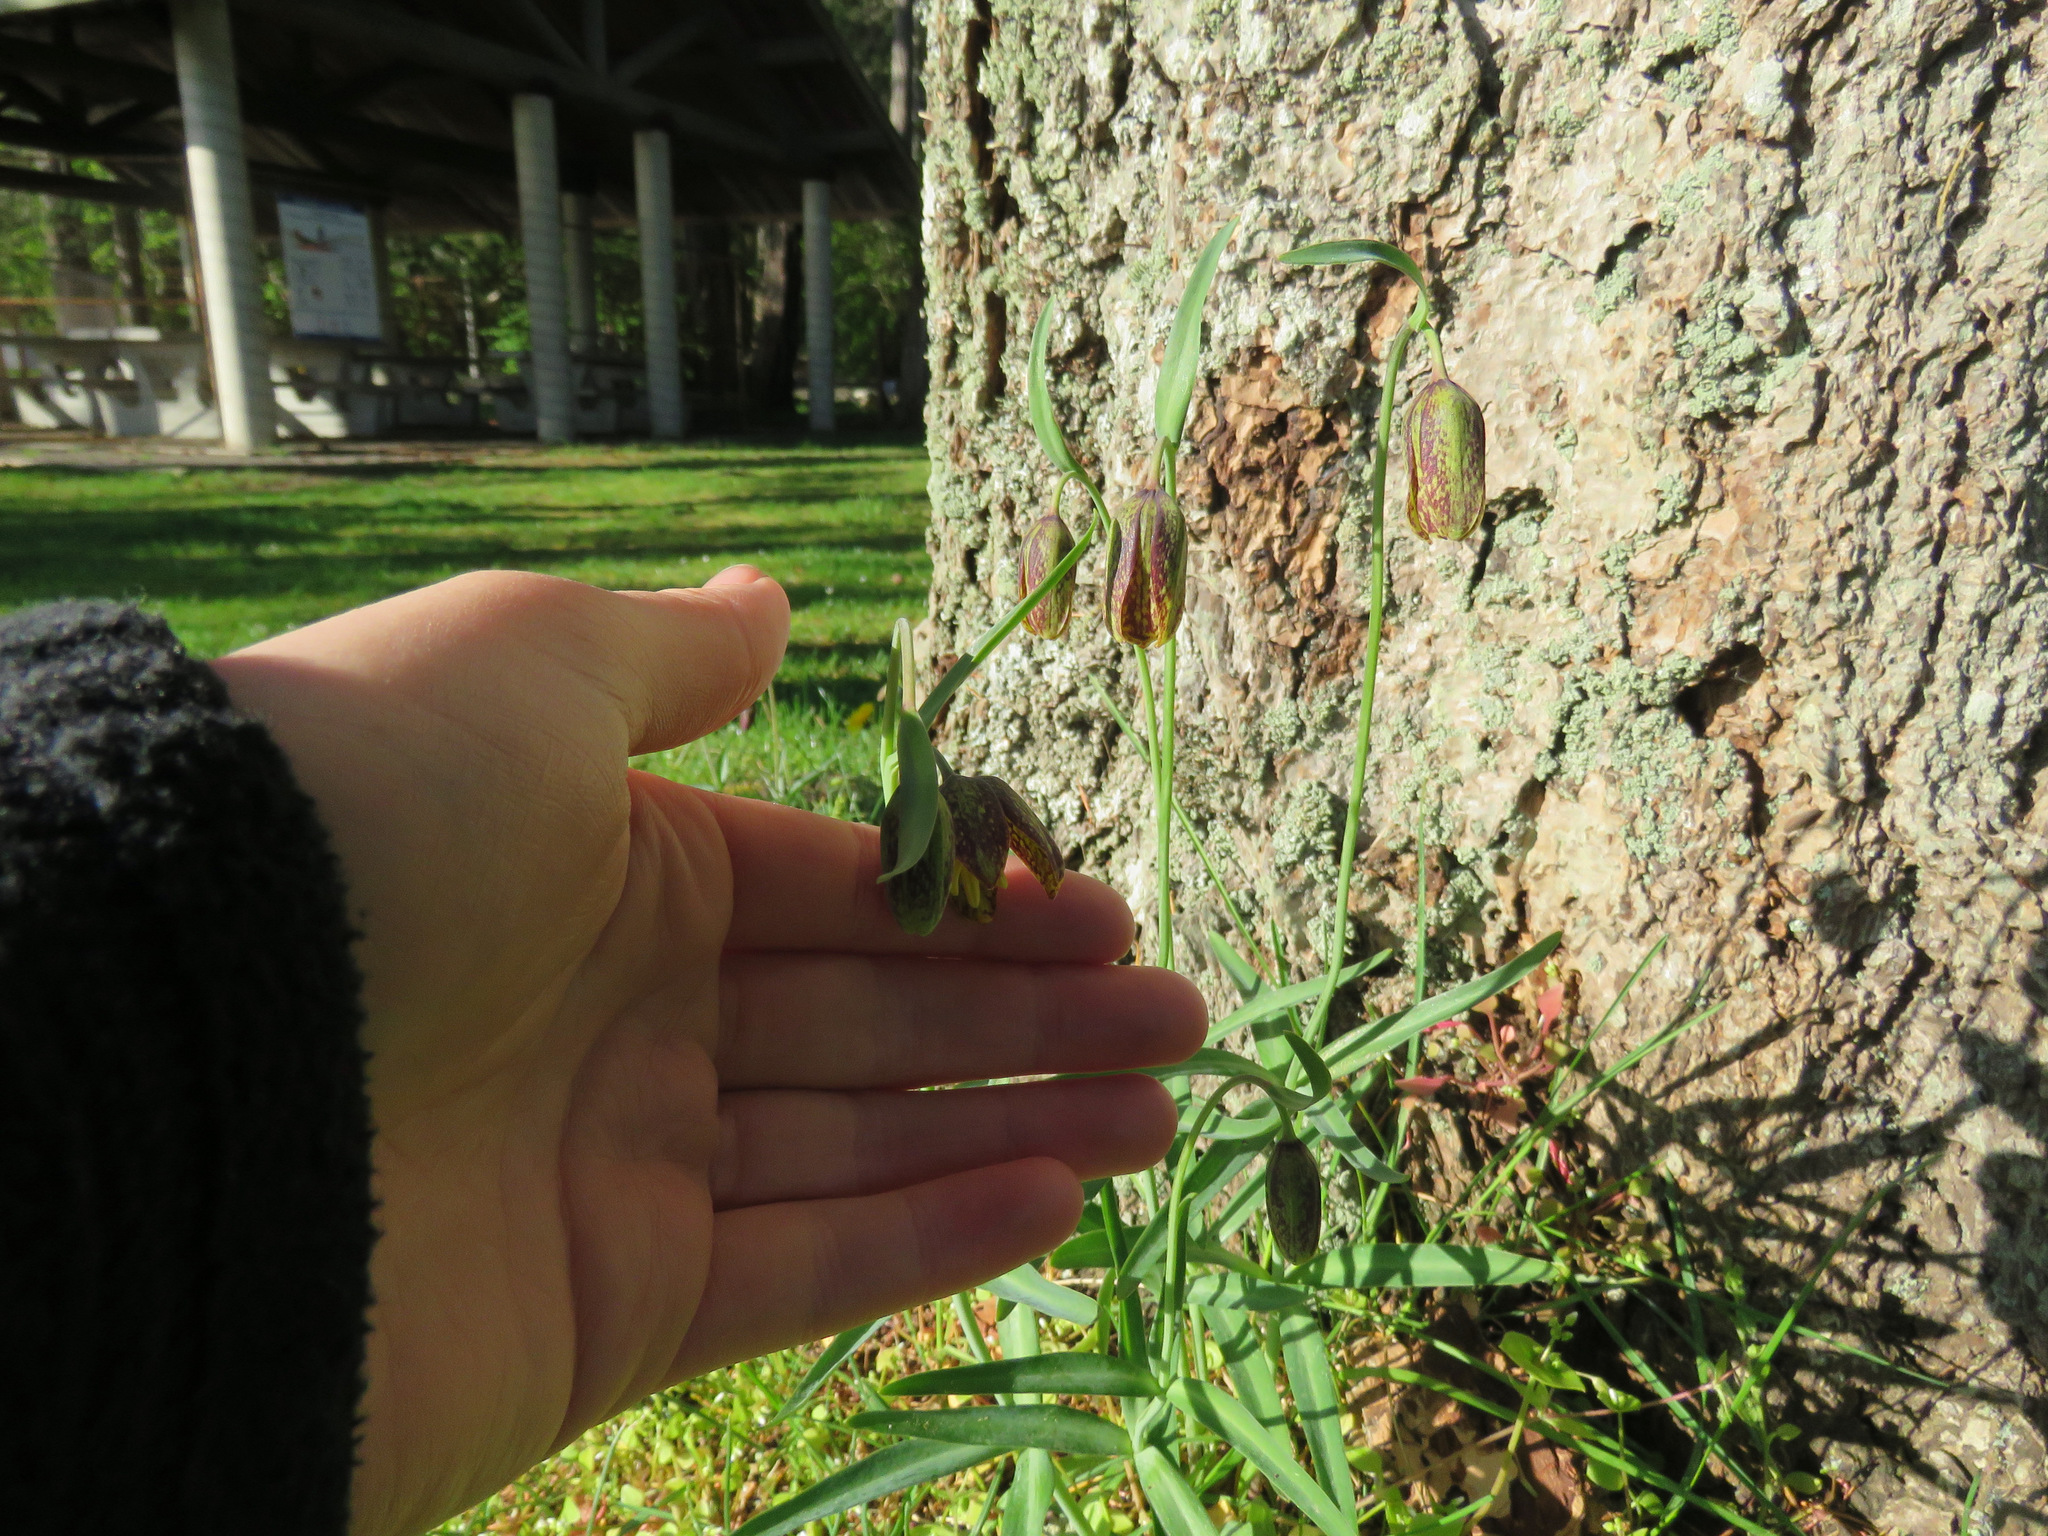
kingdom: Plantae
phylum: Tracheophyta
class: Liliopsida
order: Liliales
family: Liliaceae
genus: Fritillaria
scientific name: Fritillaria affinis
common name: Ojai fritillary
